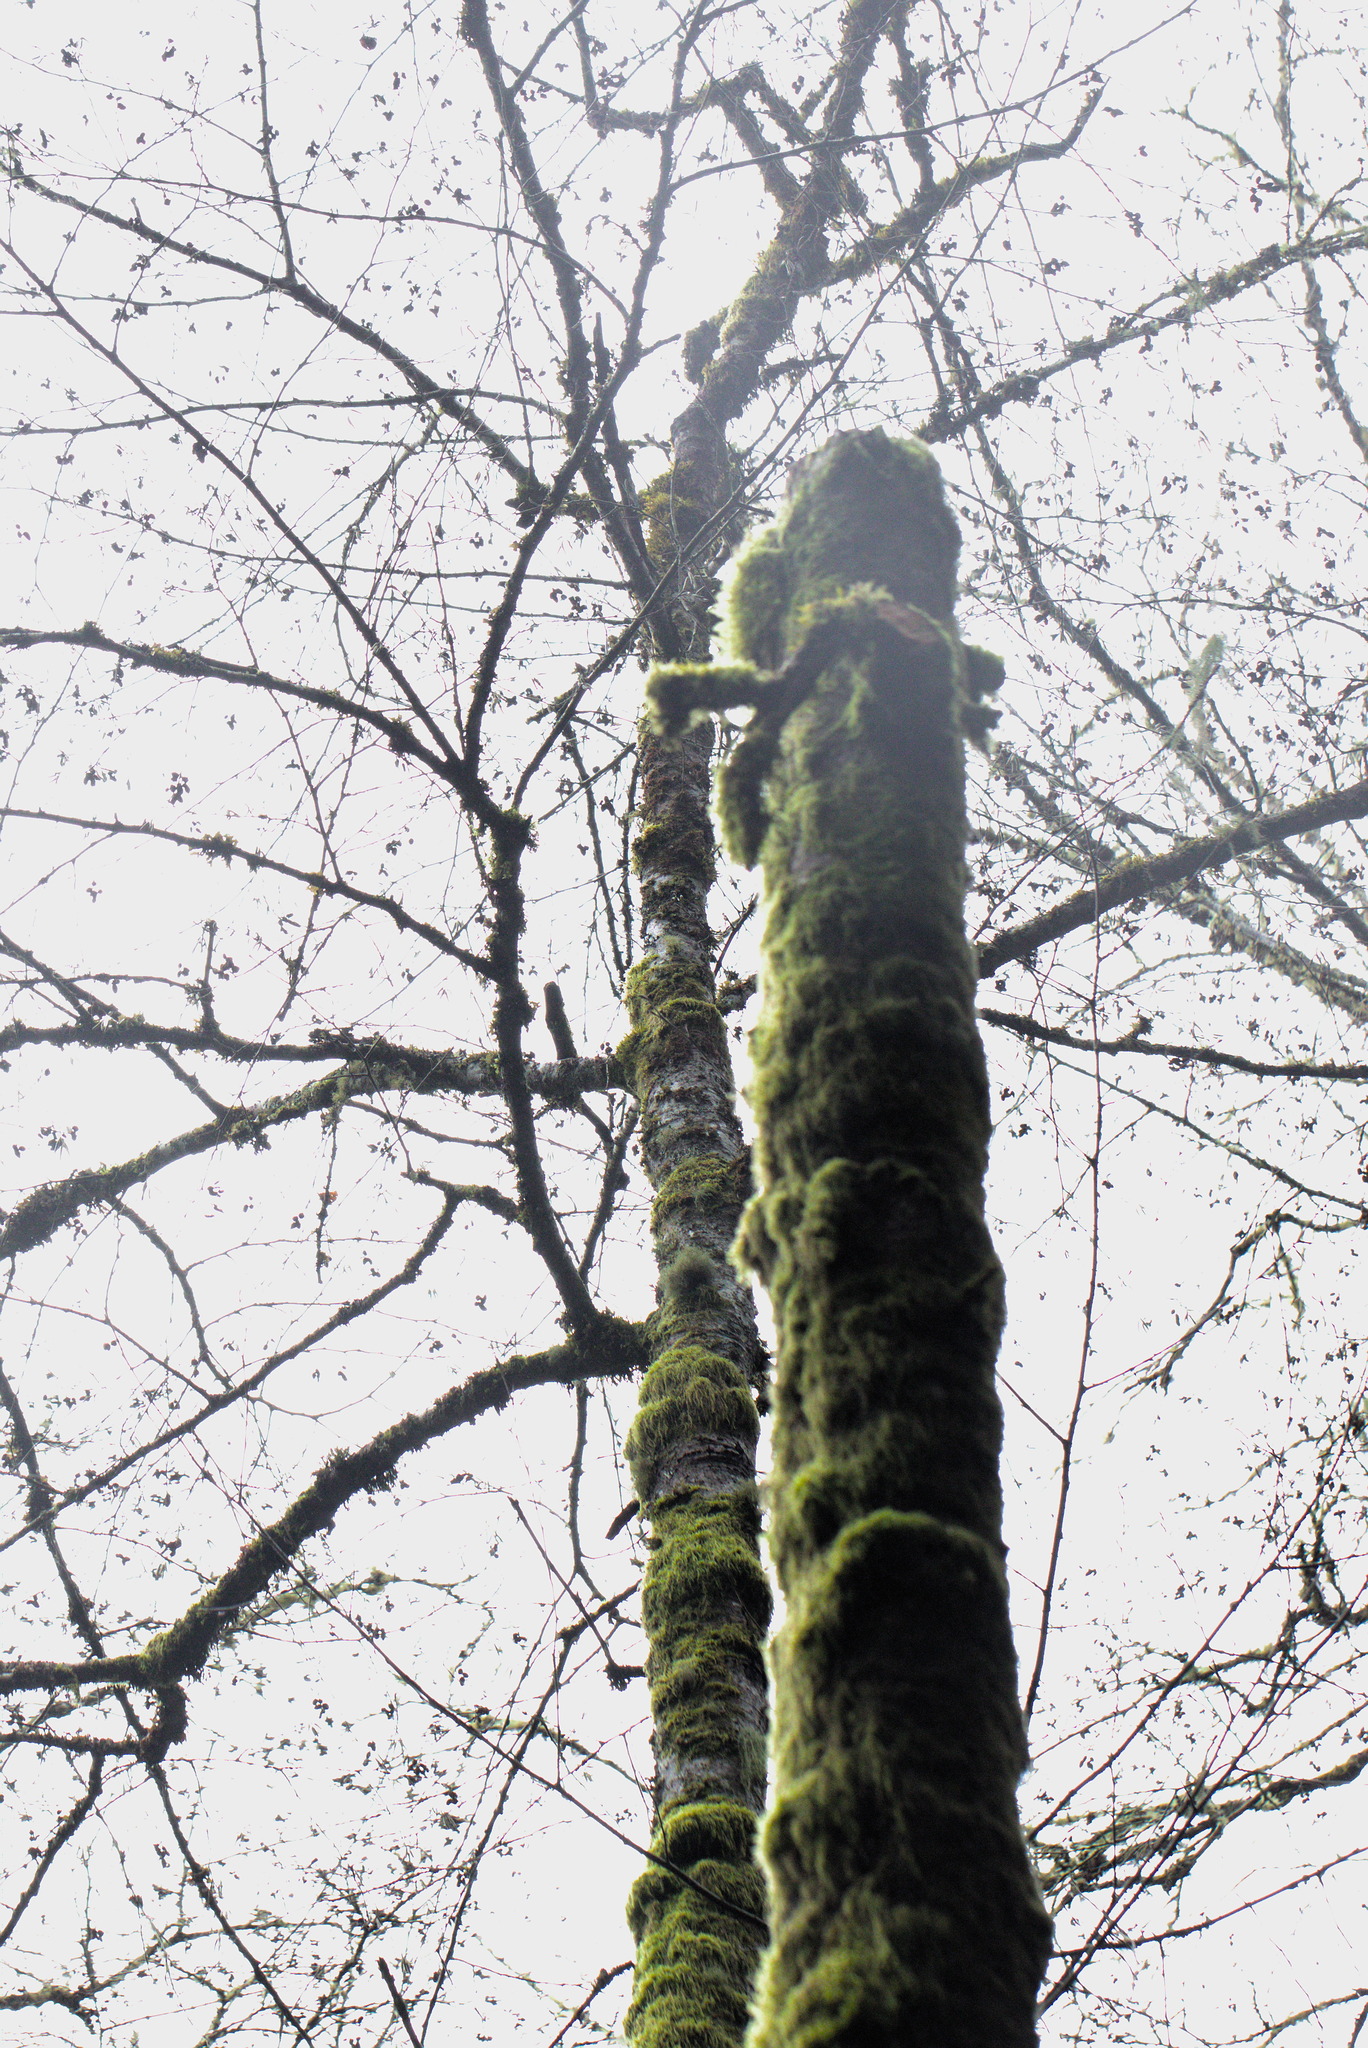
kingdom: Plantae
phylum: Tracheophyta
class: Magnoliopsida
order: Fagales
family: Betulaceae
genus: Alnus
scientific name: Alnus rubra
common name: Red alder
